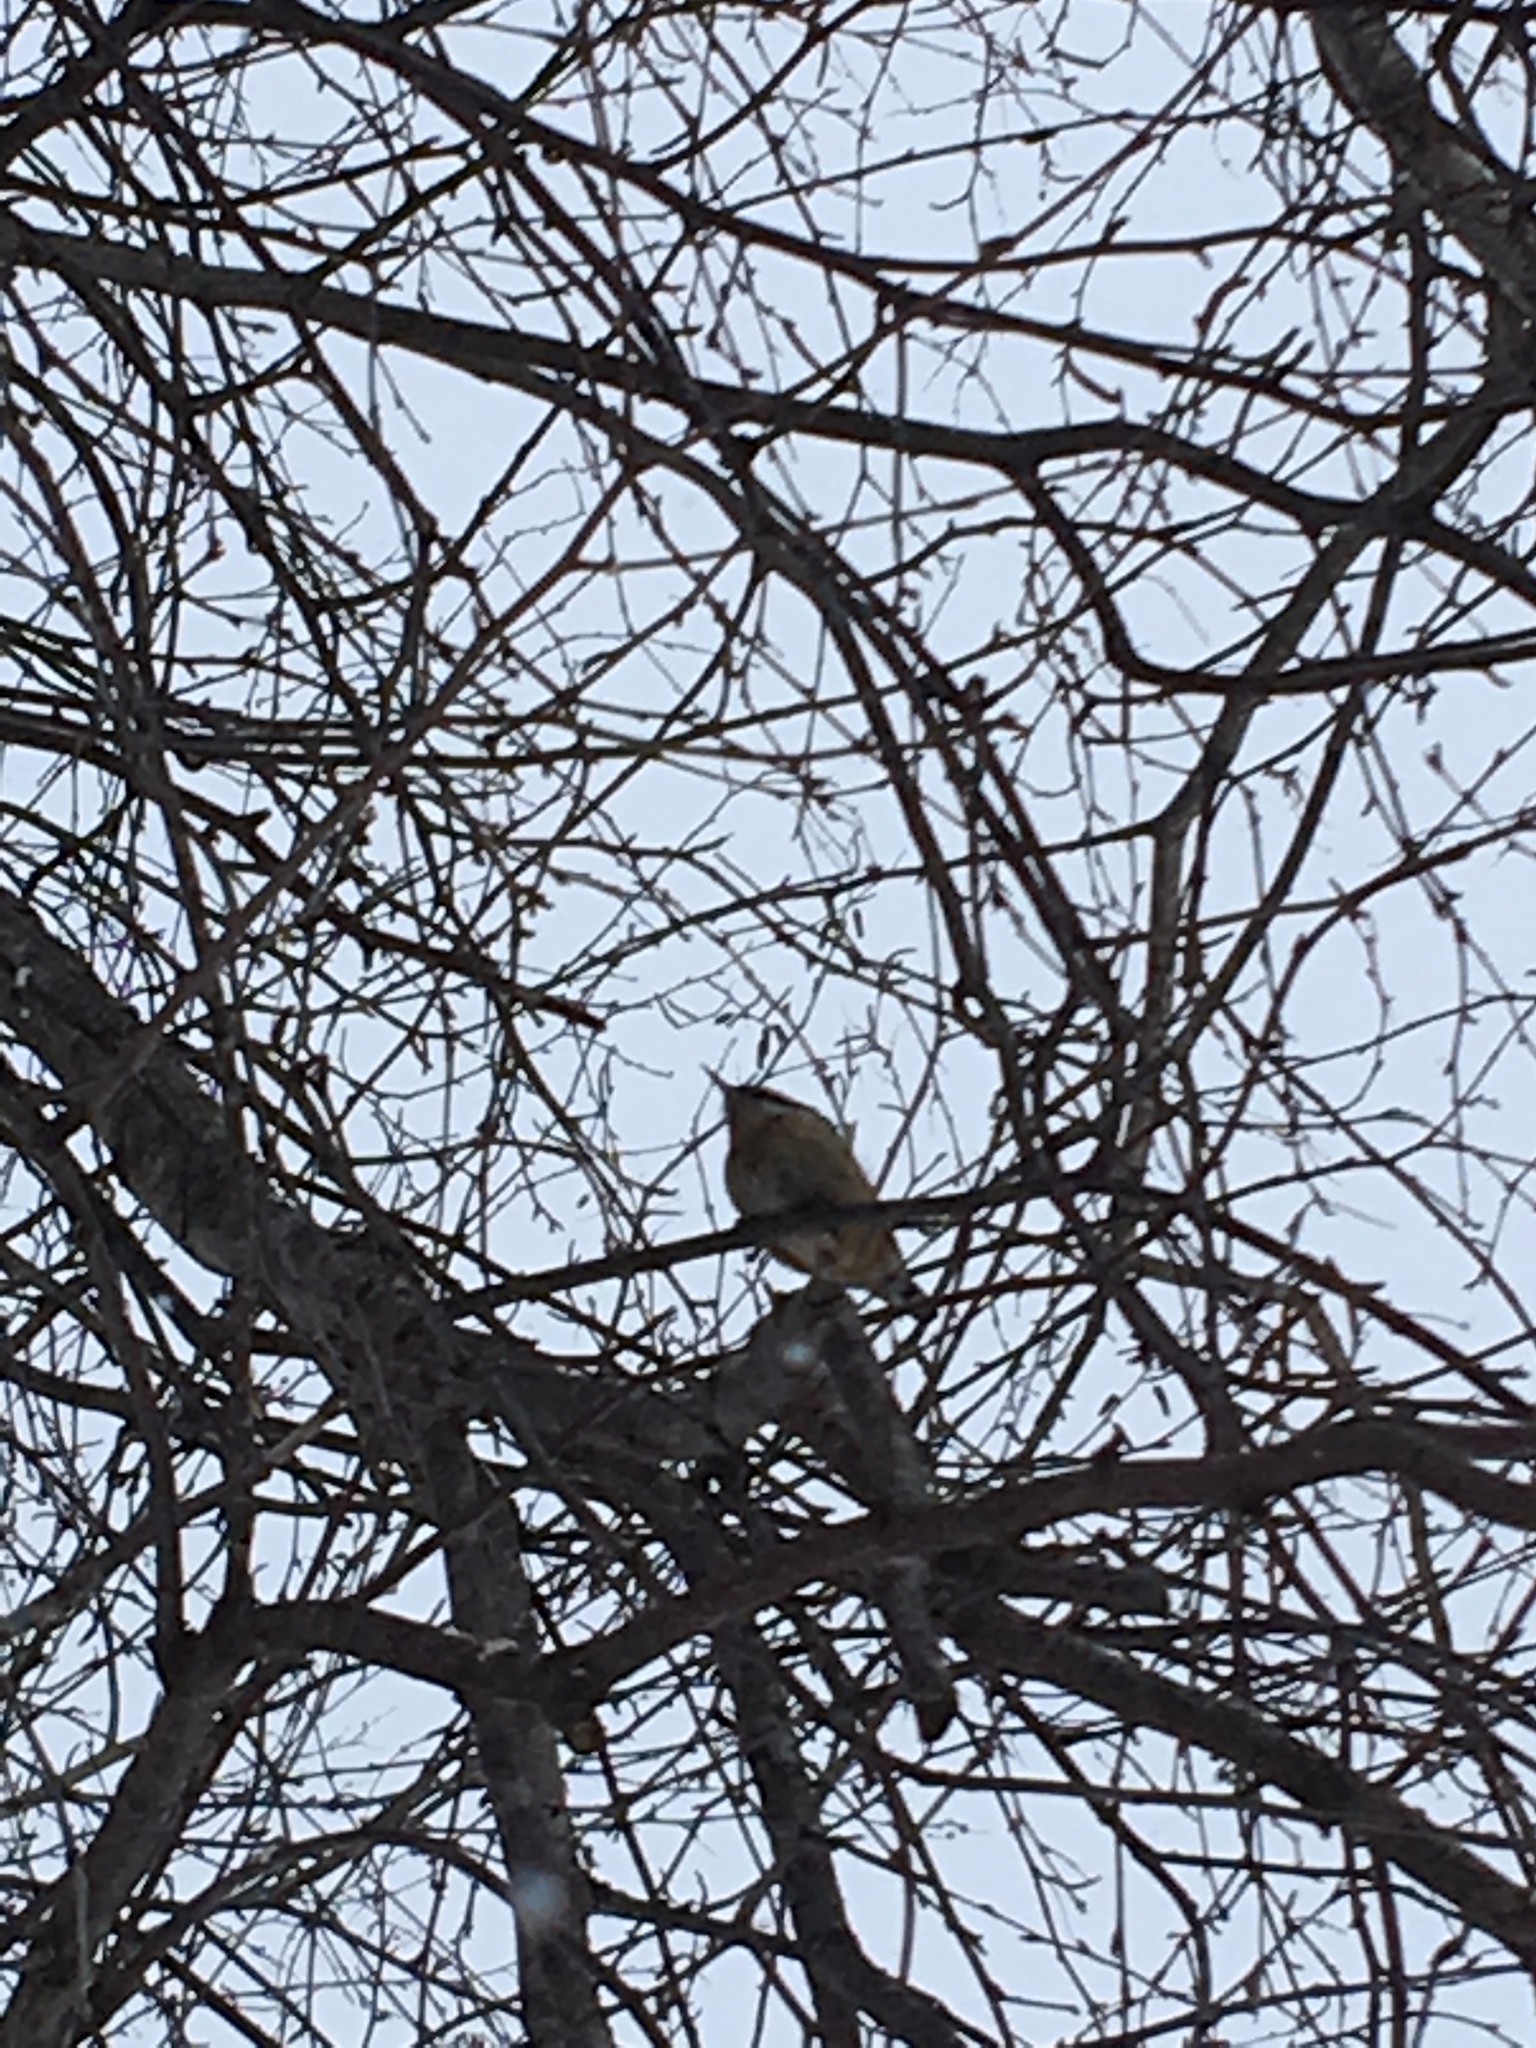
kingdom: Animalia
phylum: Chordata
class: Aves
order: Passeriformes
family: Sittidae
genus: Sitta
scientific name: Sitta canadensis
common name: Red-breasted nuthatch
